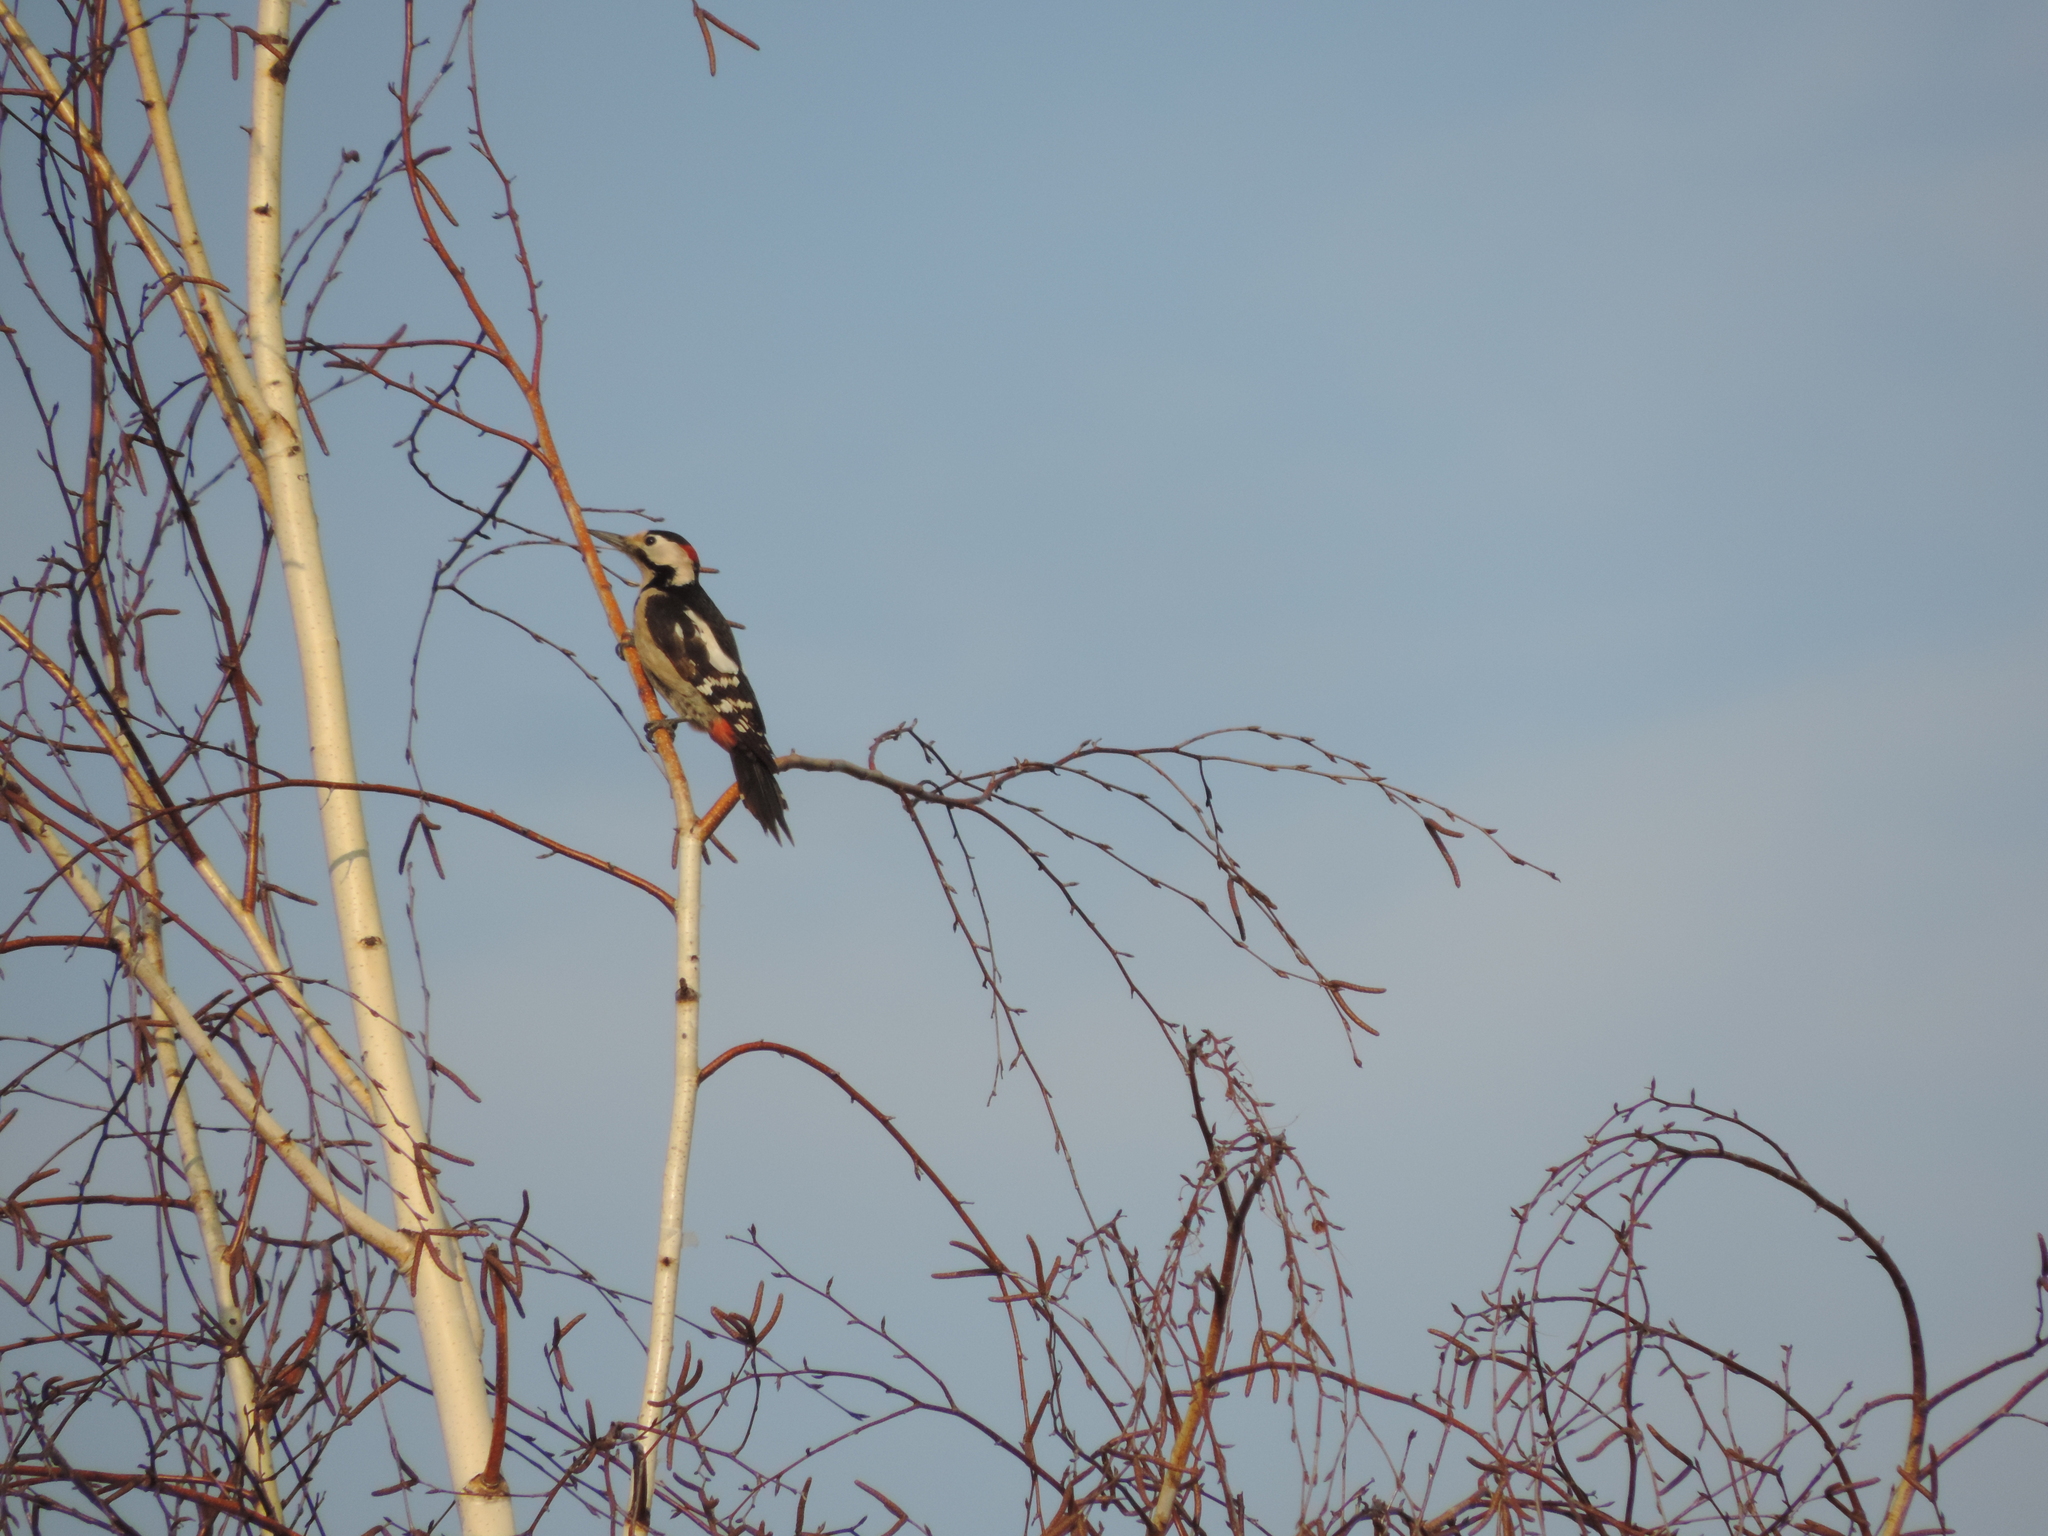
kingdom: Animalia
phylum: Chordata
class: Aves
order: Piciformes
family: Picidae
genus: Dendrocopos
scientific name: Dendrocopos syriacus
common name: Syrian woodpecker
